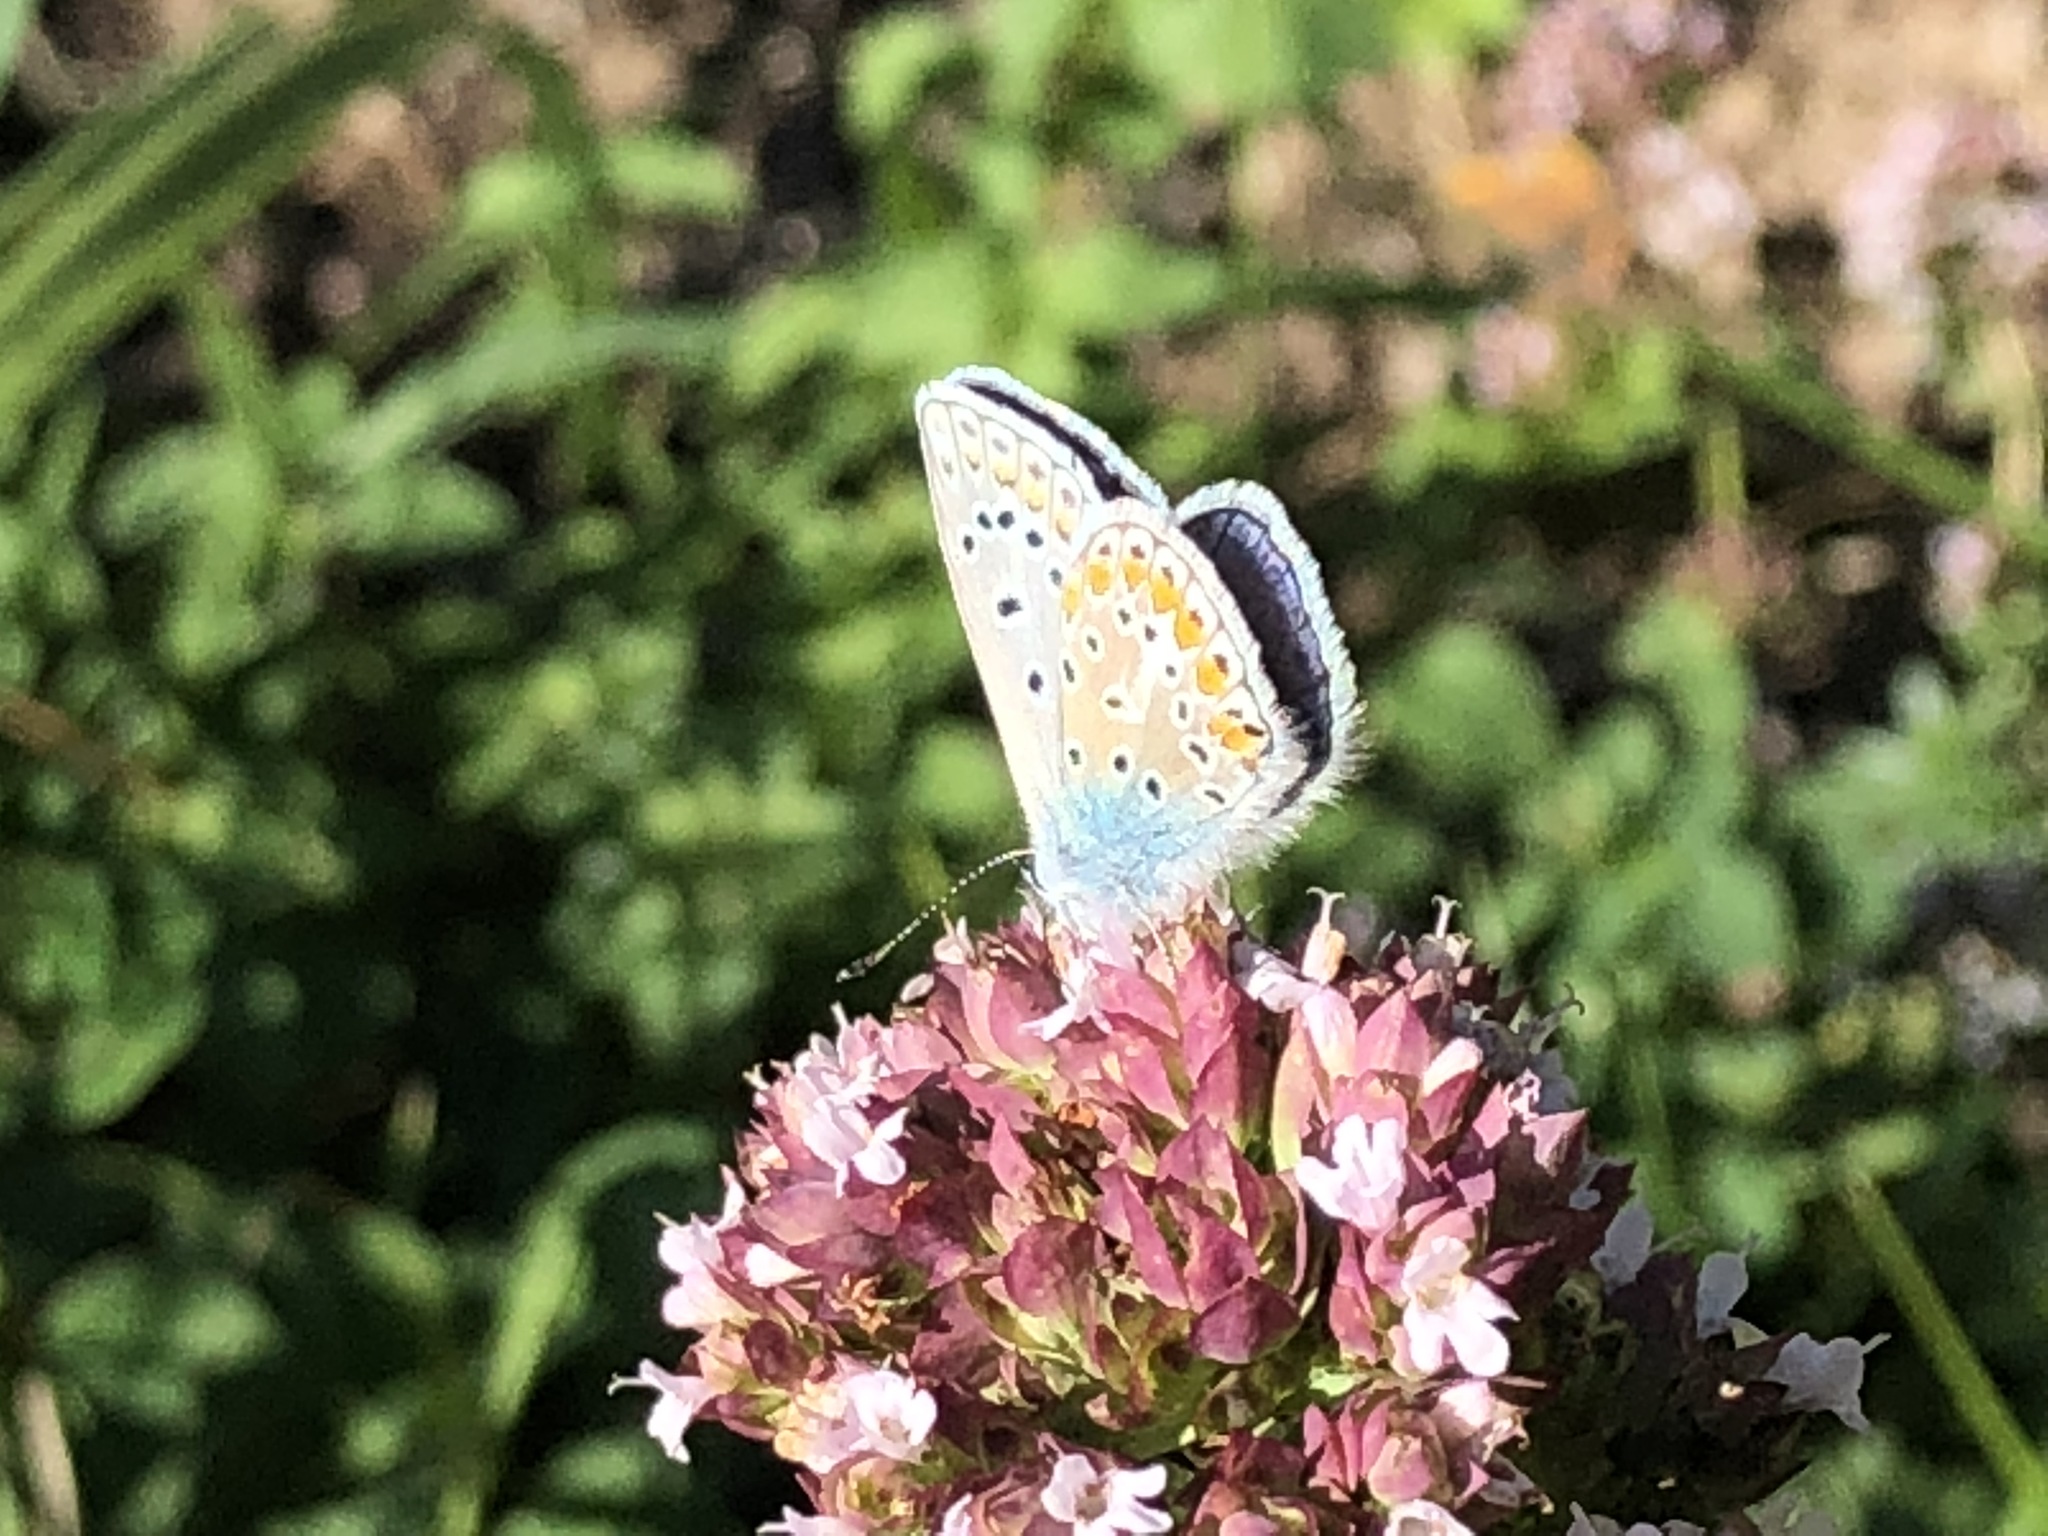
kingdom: Animalia
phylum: Arthropoda
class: Insecta
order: Lepidoptera
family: Lycaenidae
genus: Polyommatus
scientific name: Polyommatus icarus
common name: Common blue
